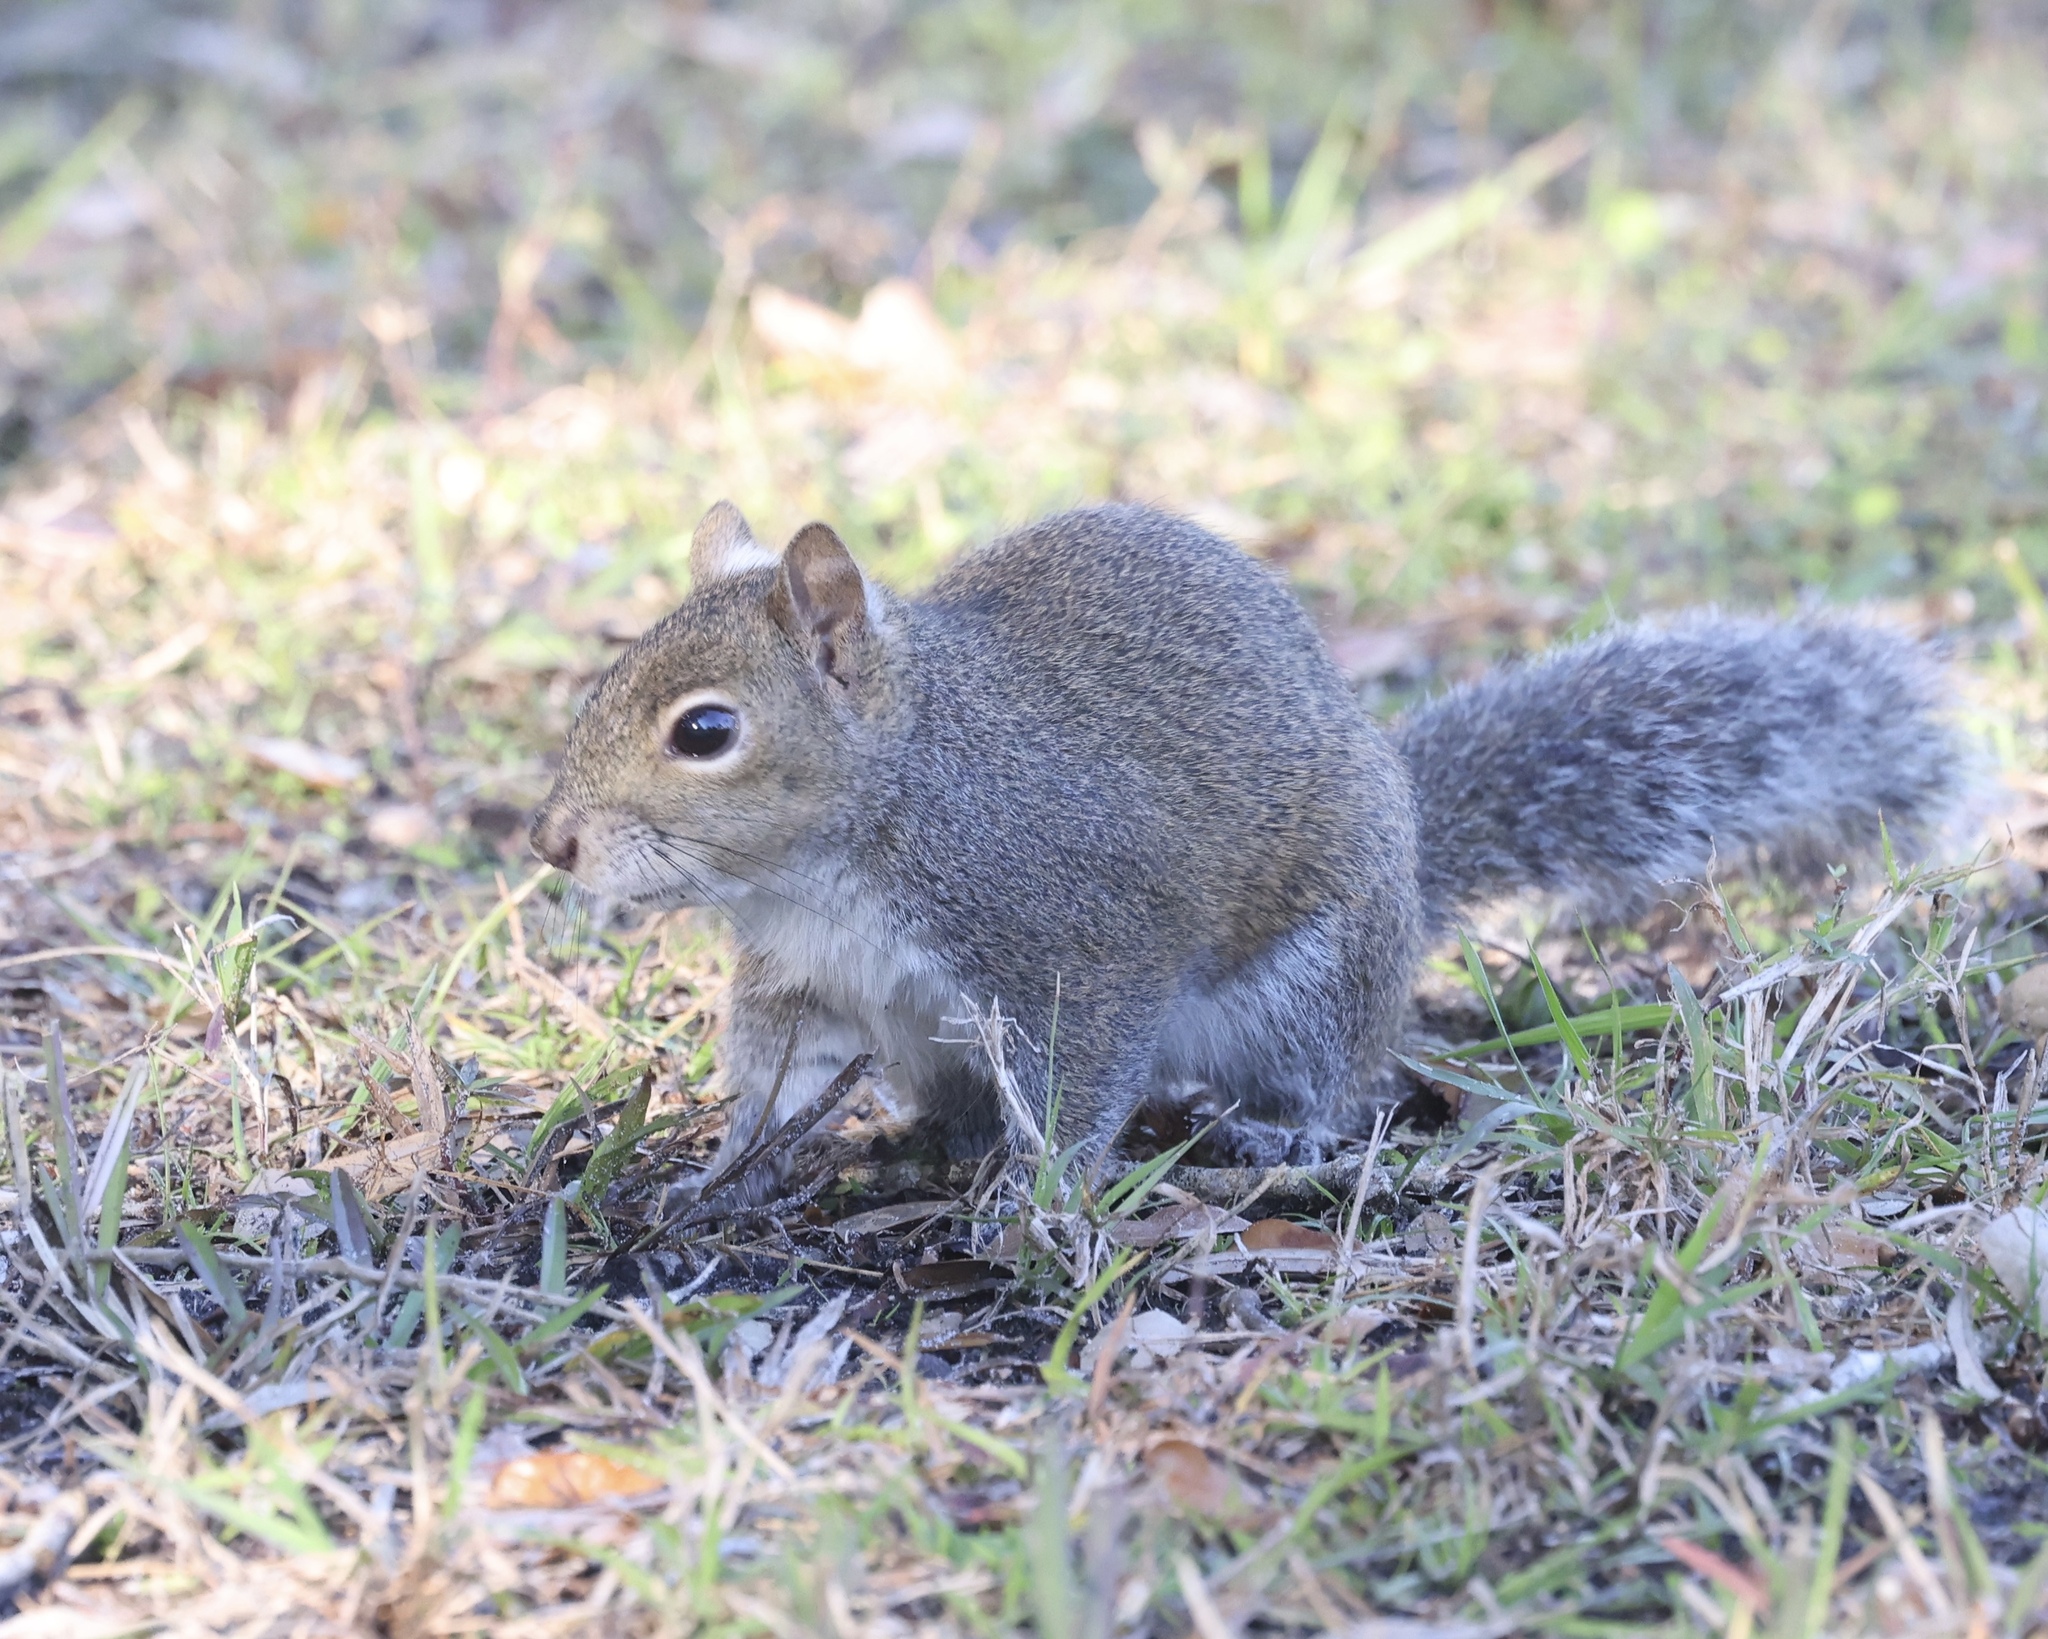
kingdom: Animalia
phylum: Chordata
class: Mammalia
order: Rodentia
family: Sciuridae
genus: Sciurus
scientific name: Sciurus carolinensis
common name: Eastern gray squirrel
